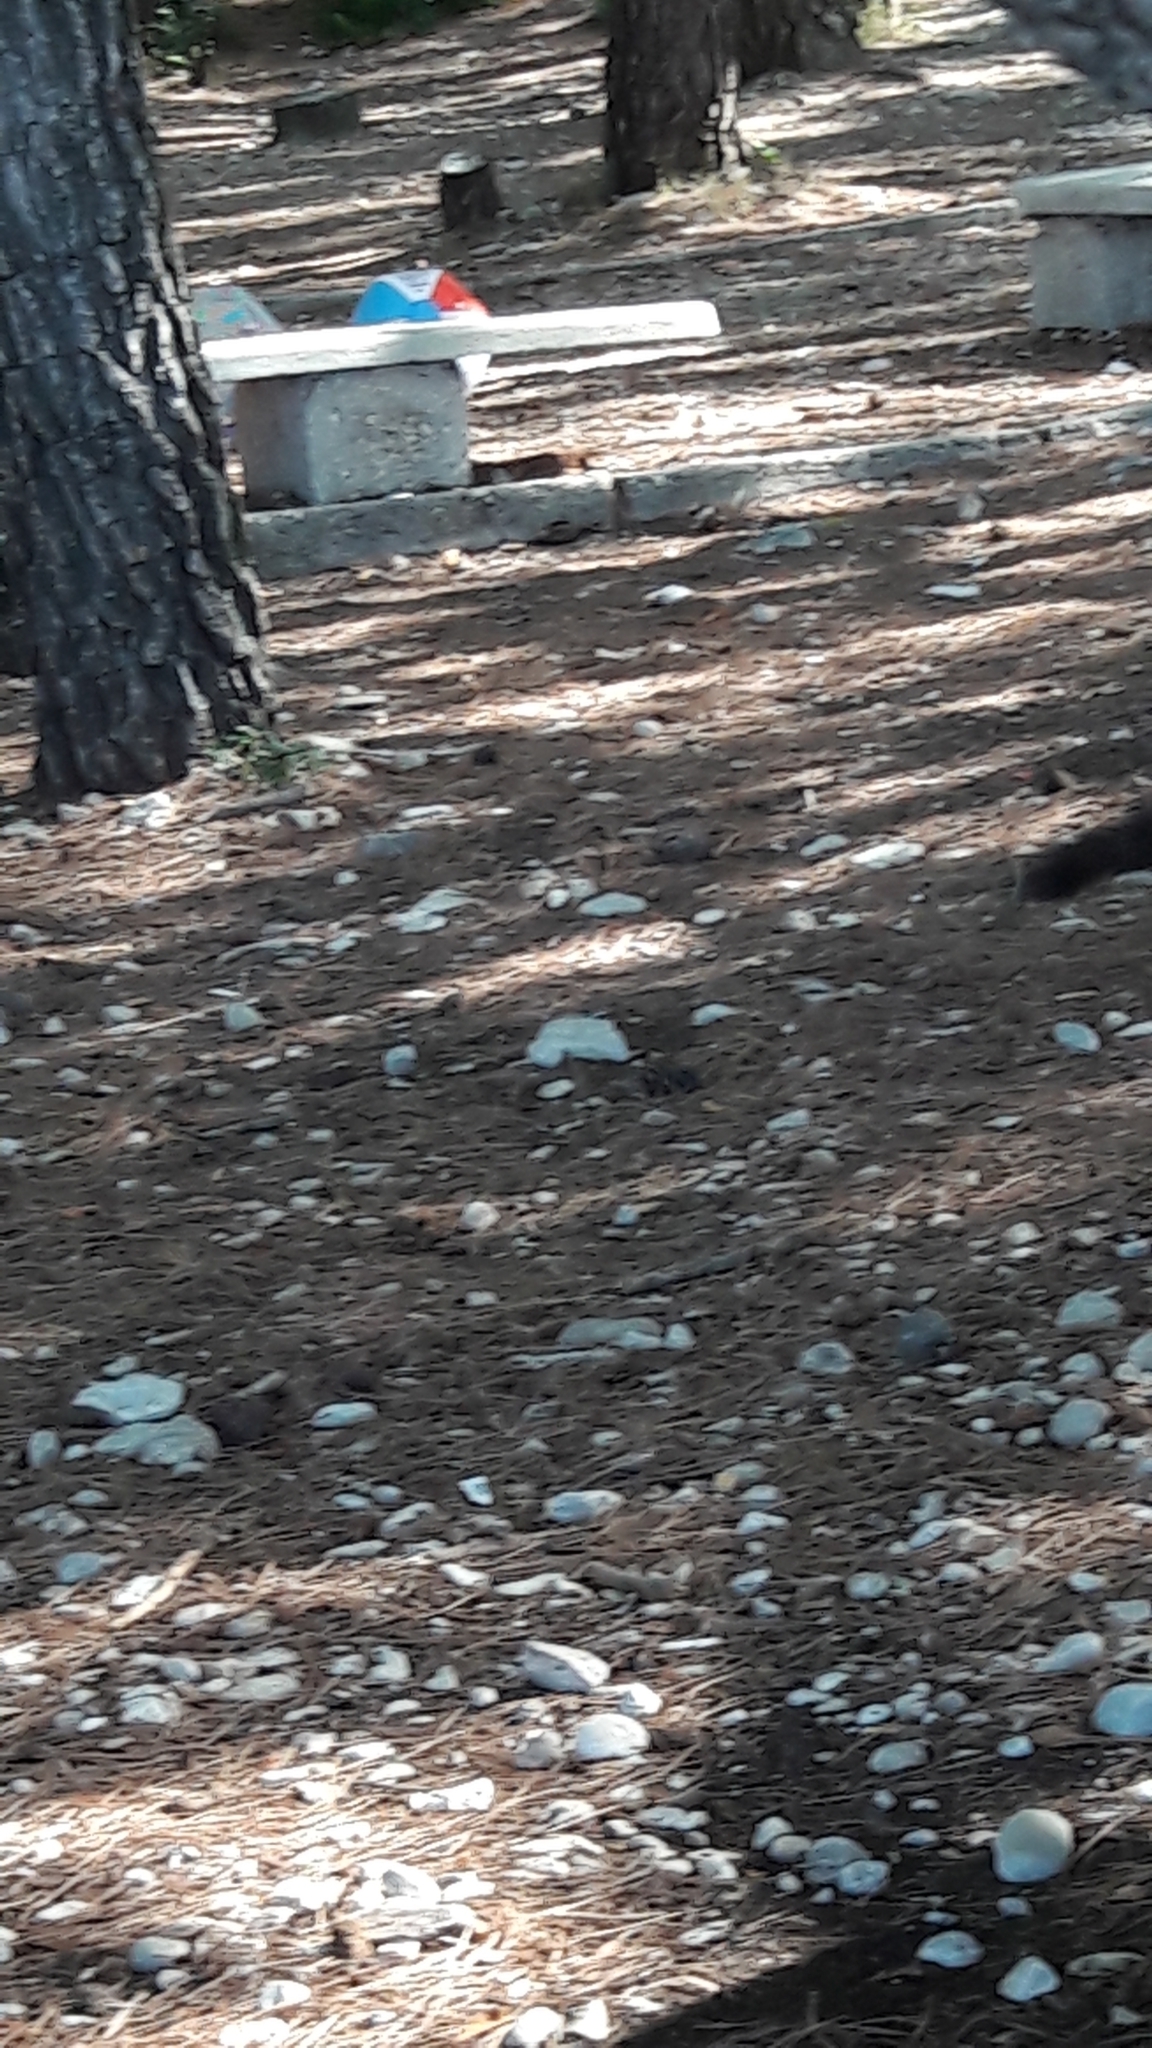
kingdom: Animalia
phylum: Chordata
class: Mammalia
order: Rodentia
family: Sciuridae
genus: Sciurus
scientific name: Sciurus vulgaris
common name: Eurasian red squirrel
